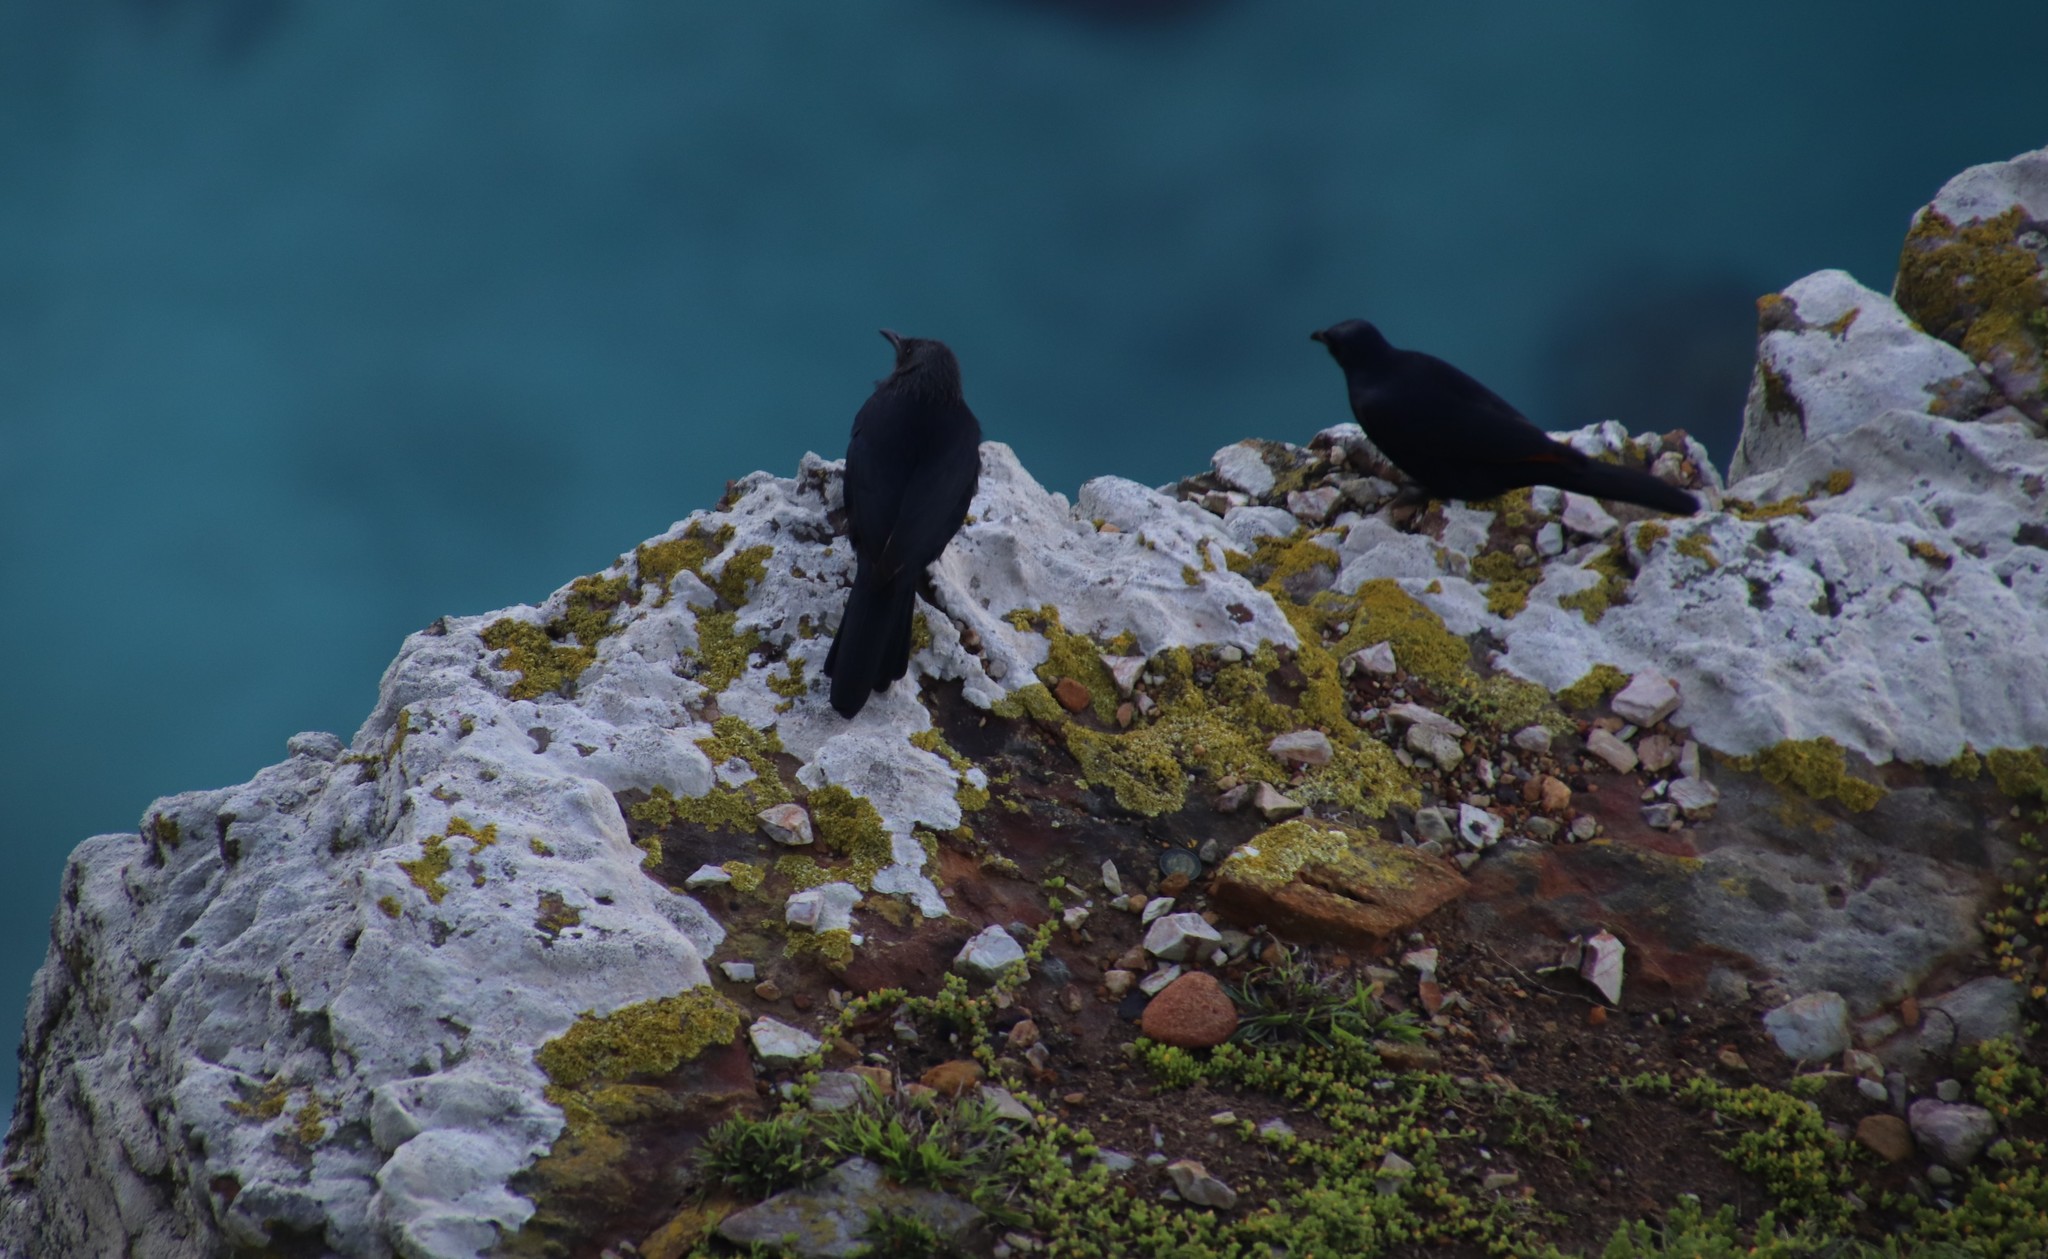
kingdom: Animalia
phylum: Chordata
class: Aves
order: Passeriformes
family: Sturnidae
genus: Onychognathus
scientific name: Onychognathus morio
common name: Red-winged starling
